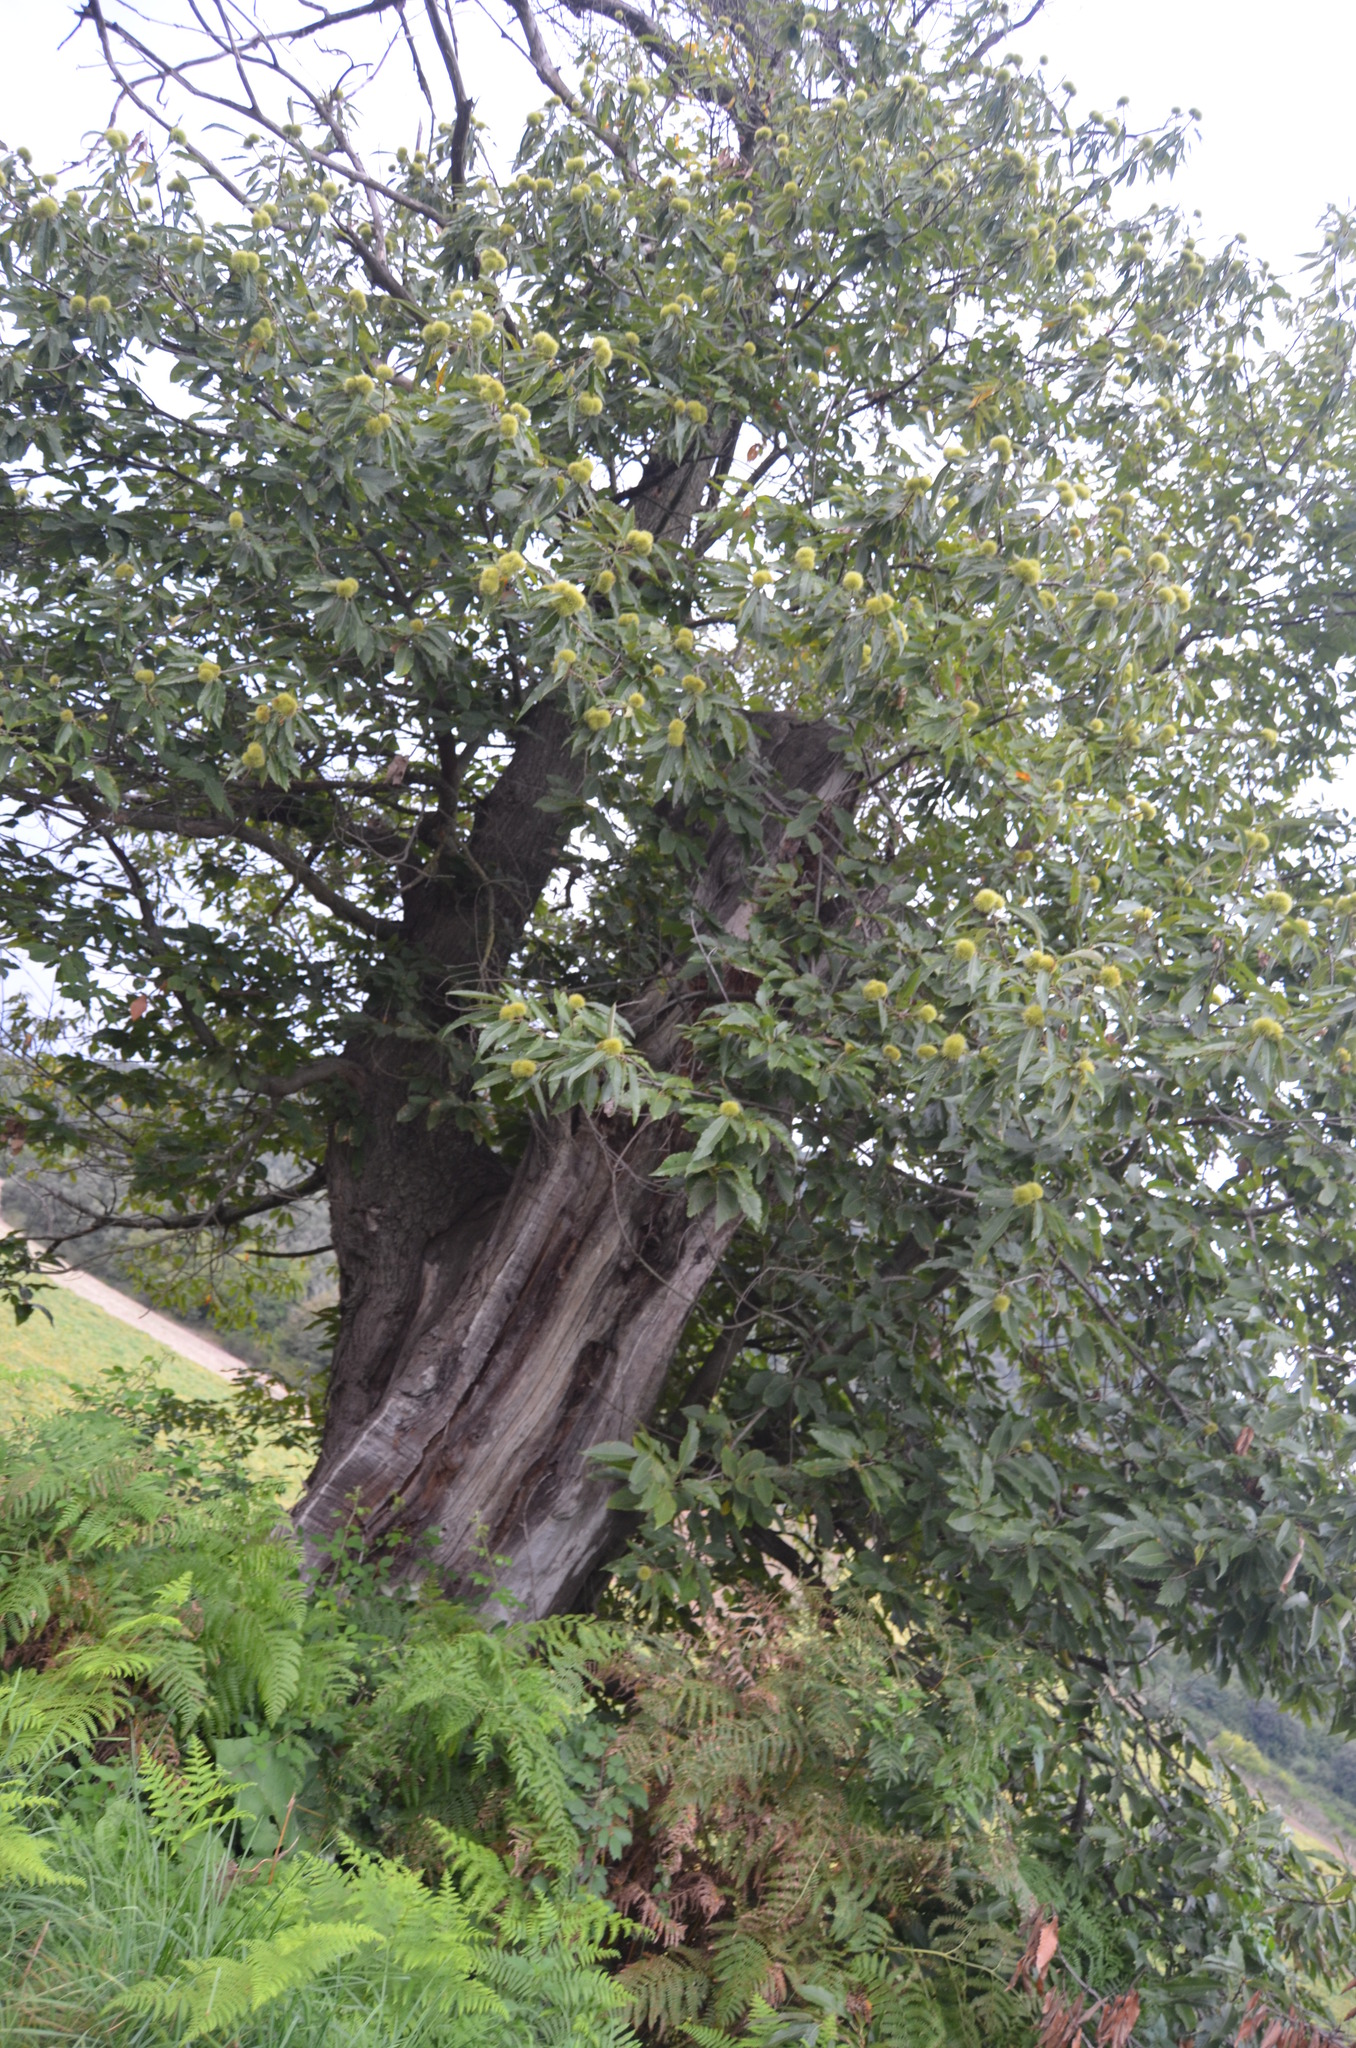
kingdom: Plantae
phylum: Tracheophyta
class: Magnoliopsida
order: Fagales
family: Fagaceae
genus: Castanea
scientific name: Castanea sativa
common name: Sweet chestnut
